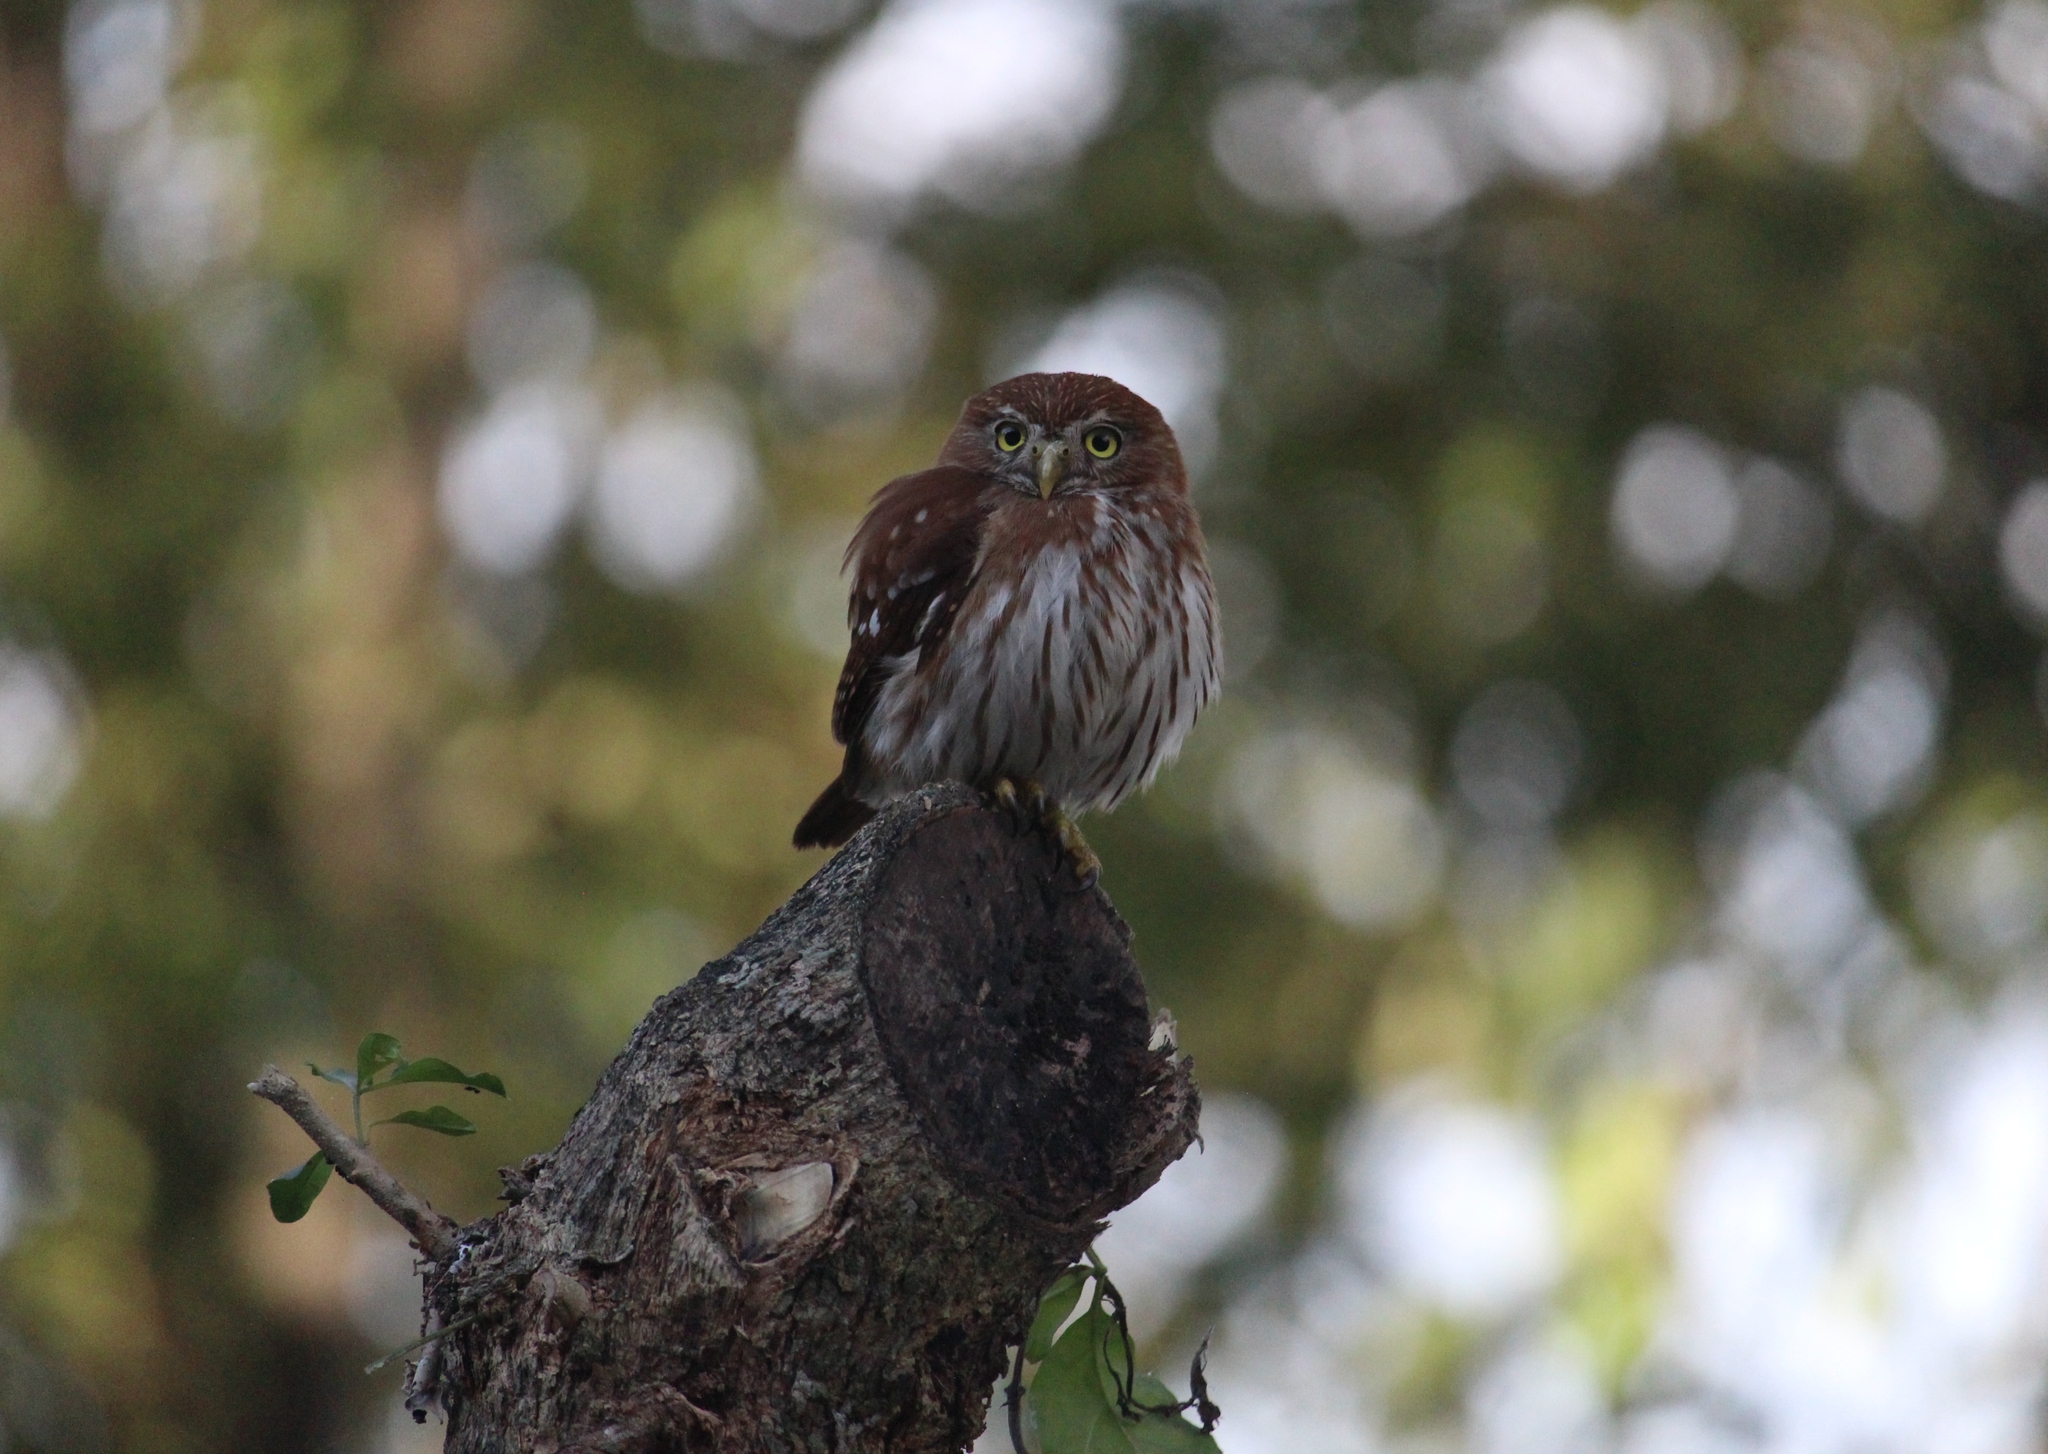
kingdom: Animalia
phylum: Chordata
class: Aves
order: Strigiformes
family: Strigidae
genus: Glaucidium
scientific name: Glaucidium brasilianum
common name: Ferruginous pygmy-owl
